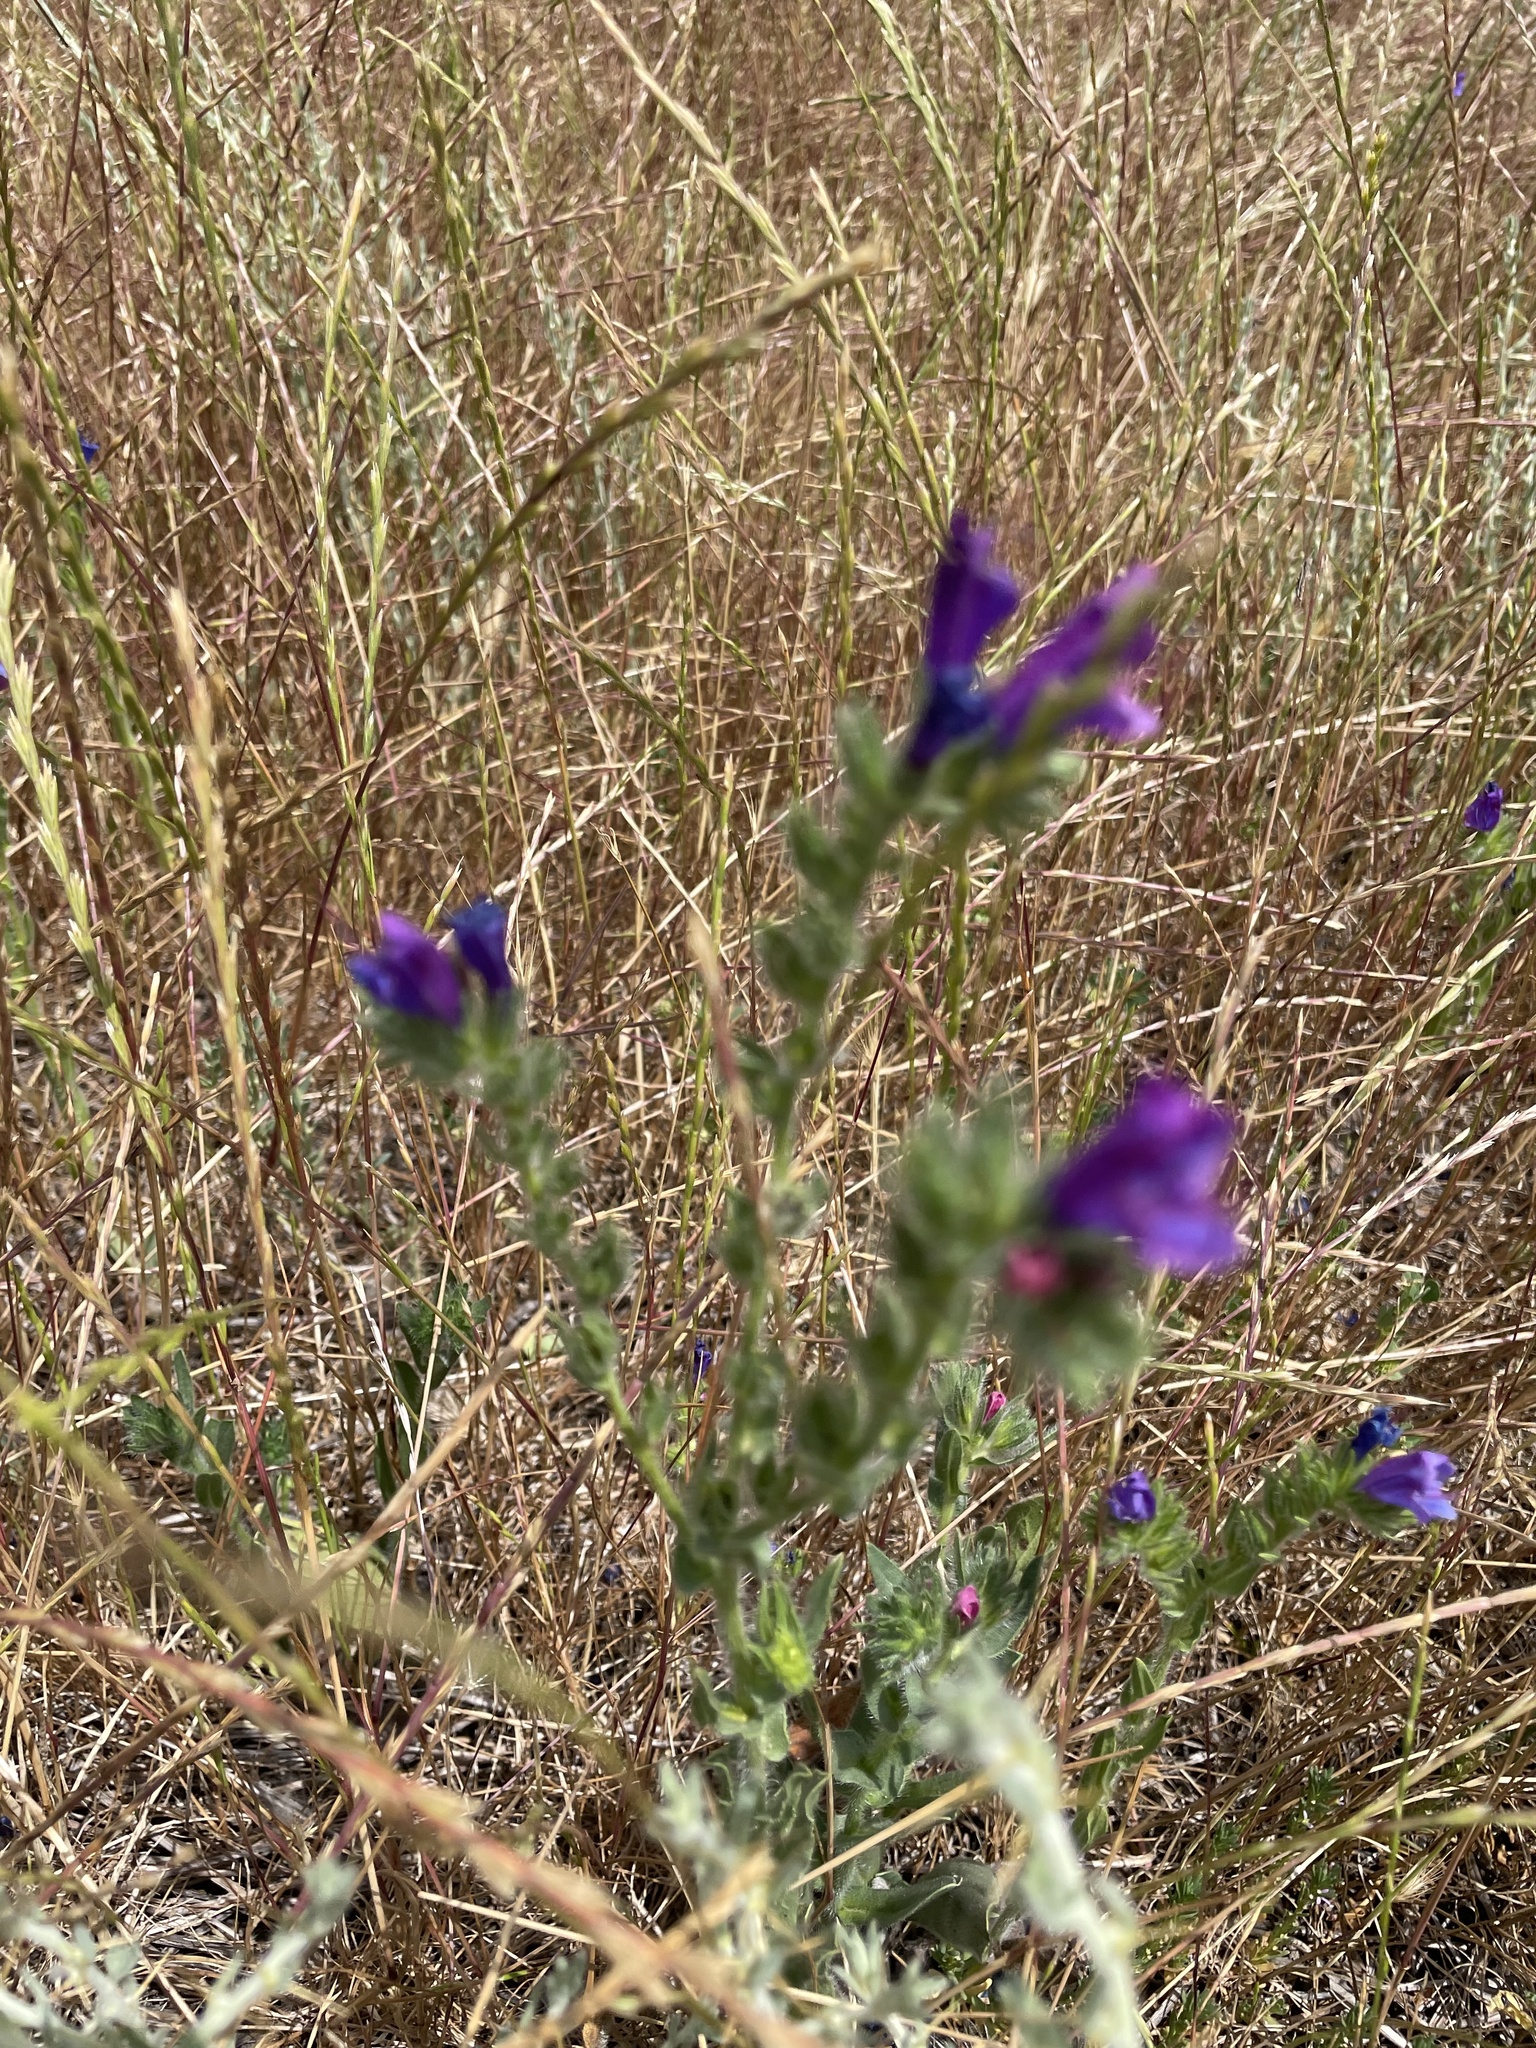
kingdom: Plantae
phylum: Tracheophyta
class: Magnoliopsida
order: Boraginales
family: Boraginaceae
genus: Echium
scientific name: Echium plantagineum
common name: Purple viper's-bugloss
